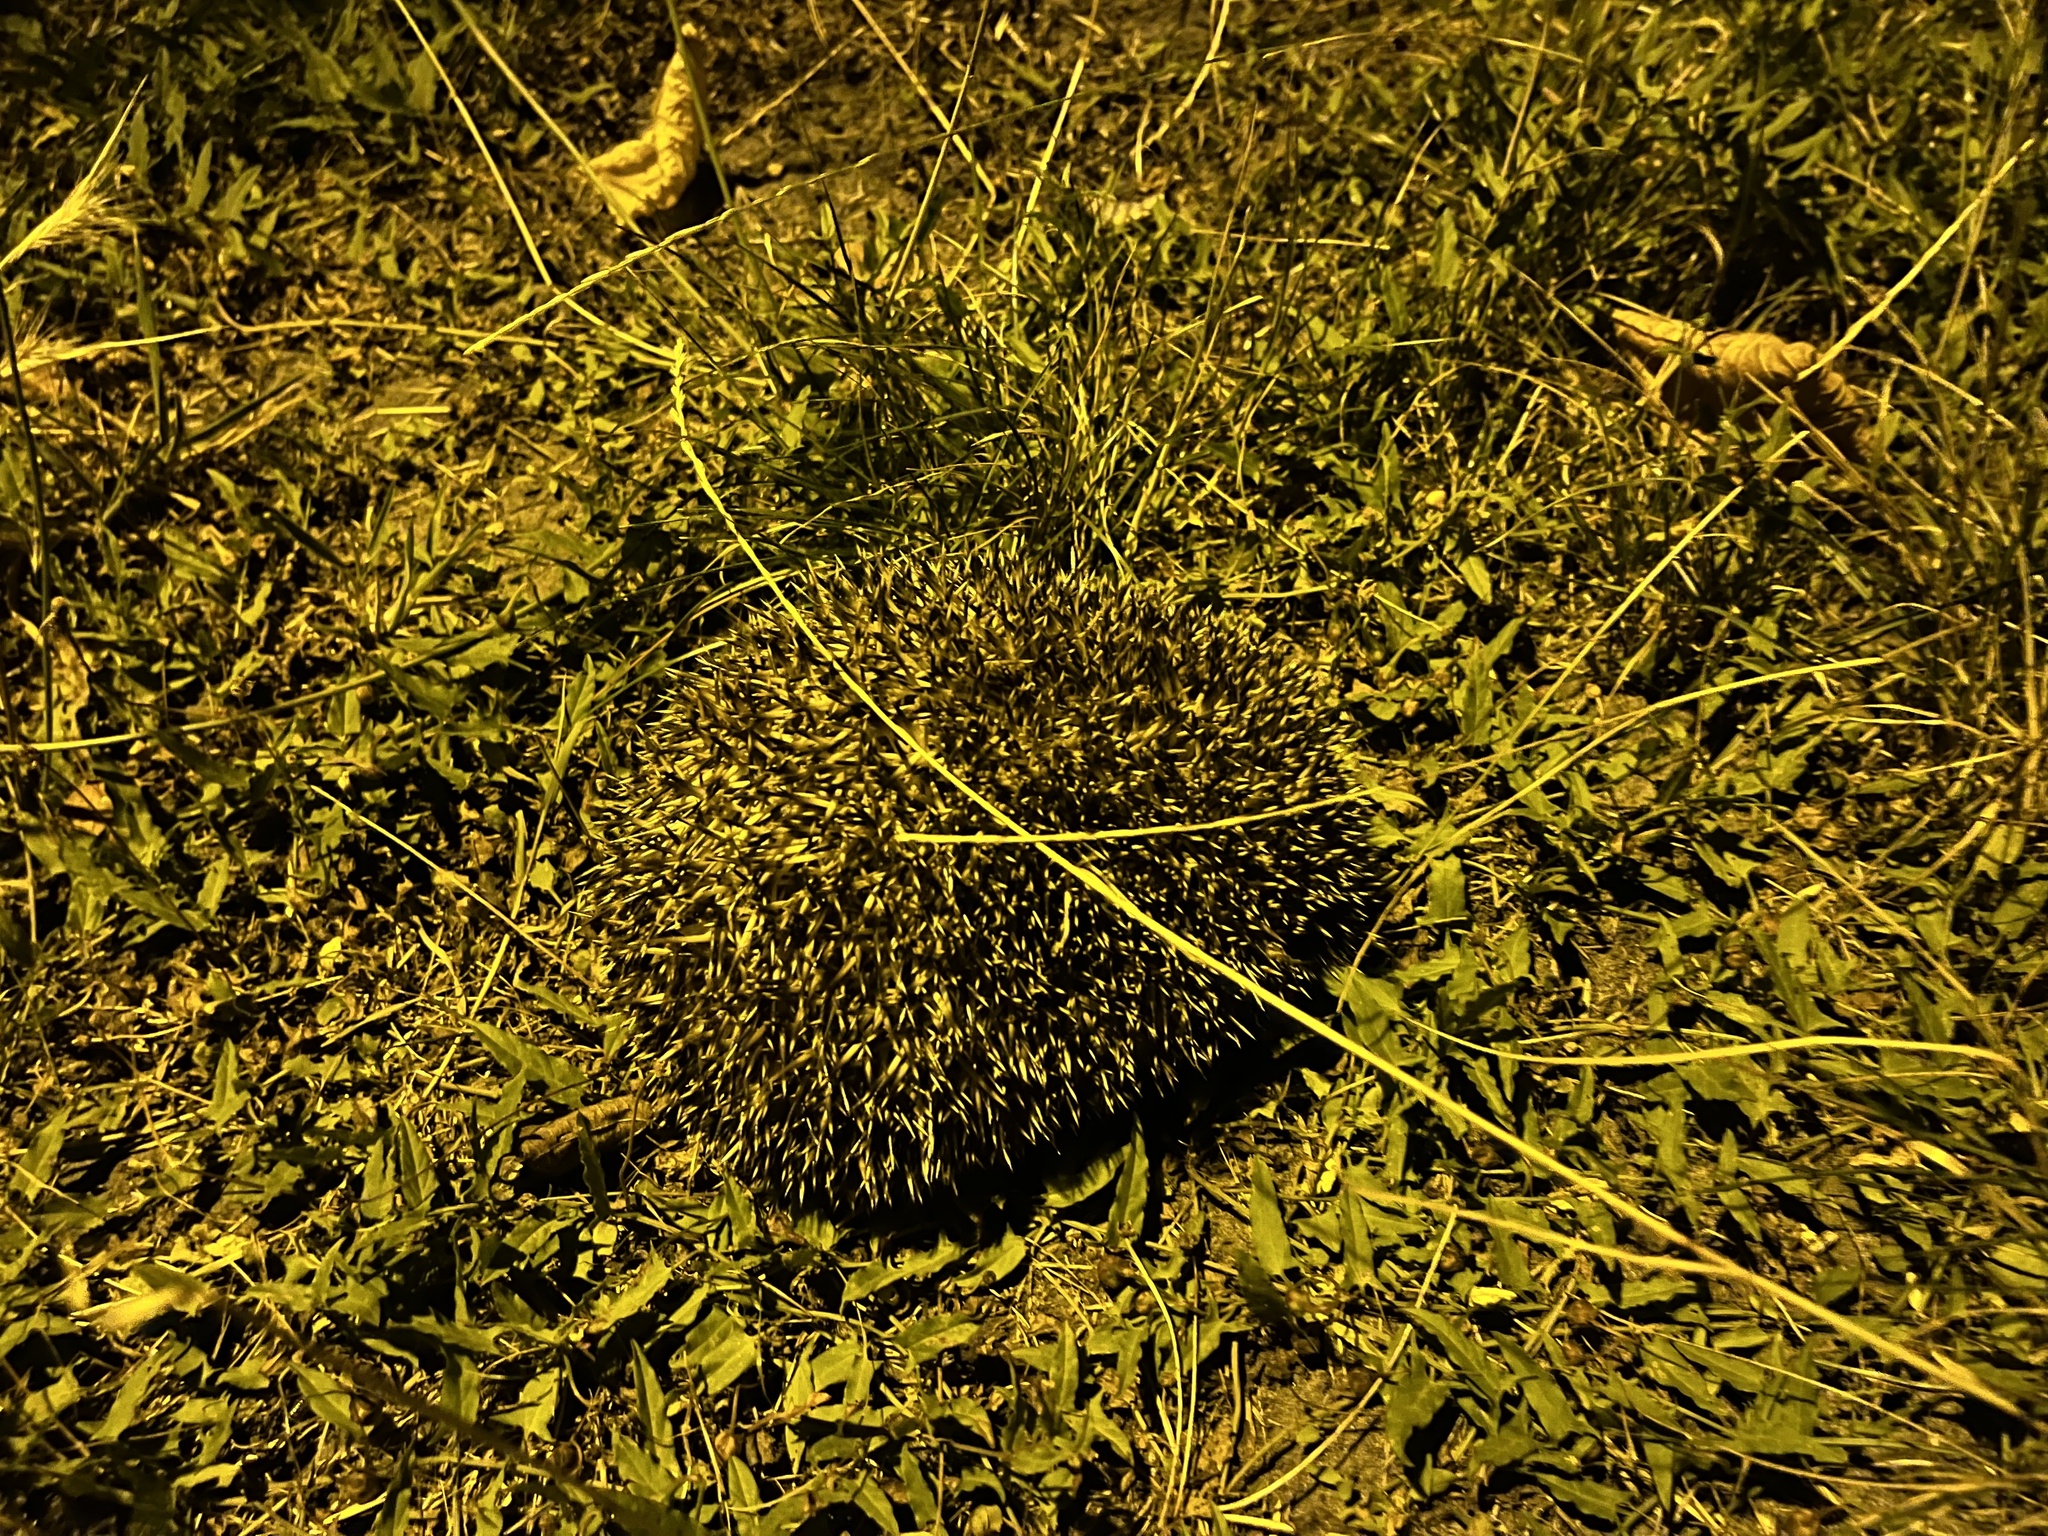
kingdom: Animalia
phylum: Chordata
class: Mammalia
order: Erinaceomorpha
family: Erinaceidae
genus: Erinaceus
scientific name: Erinaceus europaeus
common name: West european hedgehog
